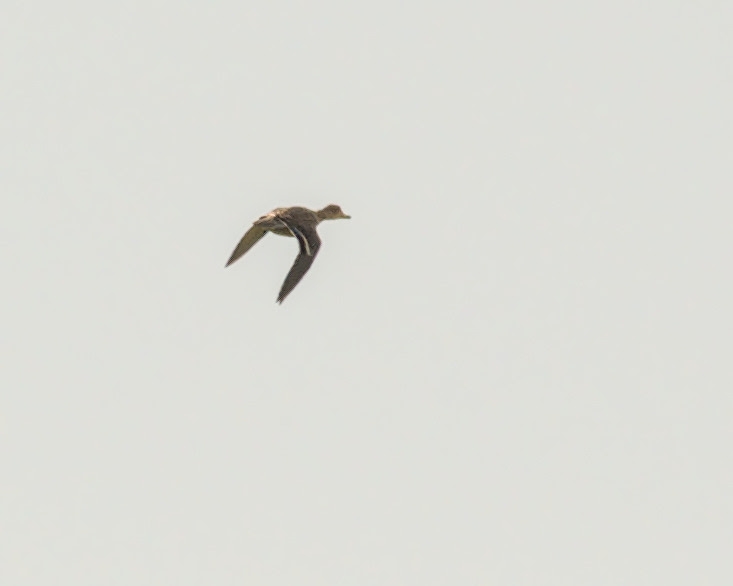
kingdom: Animalia
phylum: Chordata
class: Aves
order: Anseriformes
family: Anatidae
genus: Anas
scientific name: Anas crecca
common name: Eurasian teal
